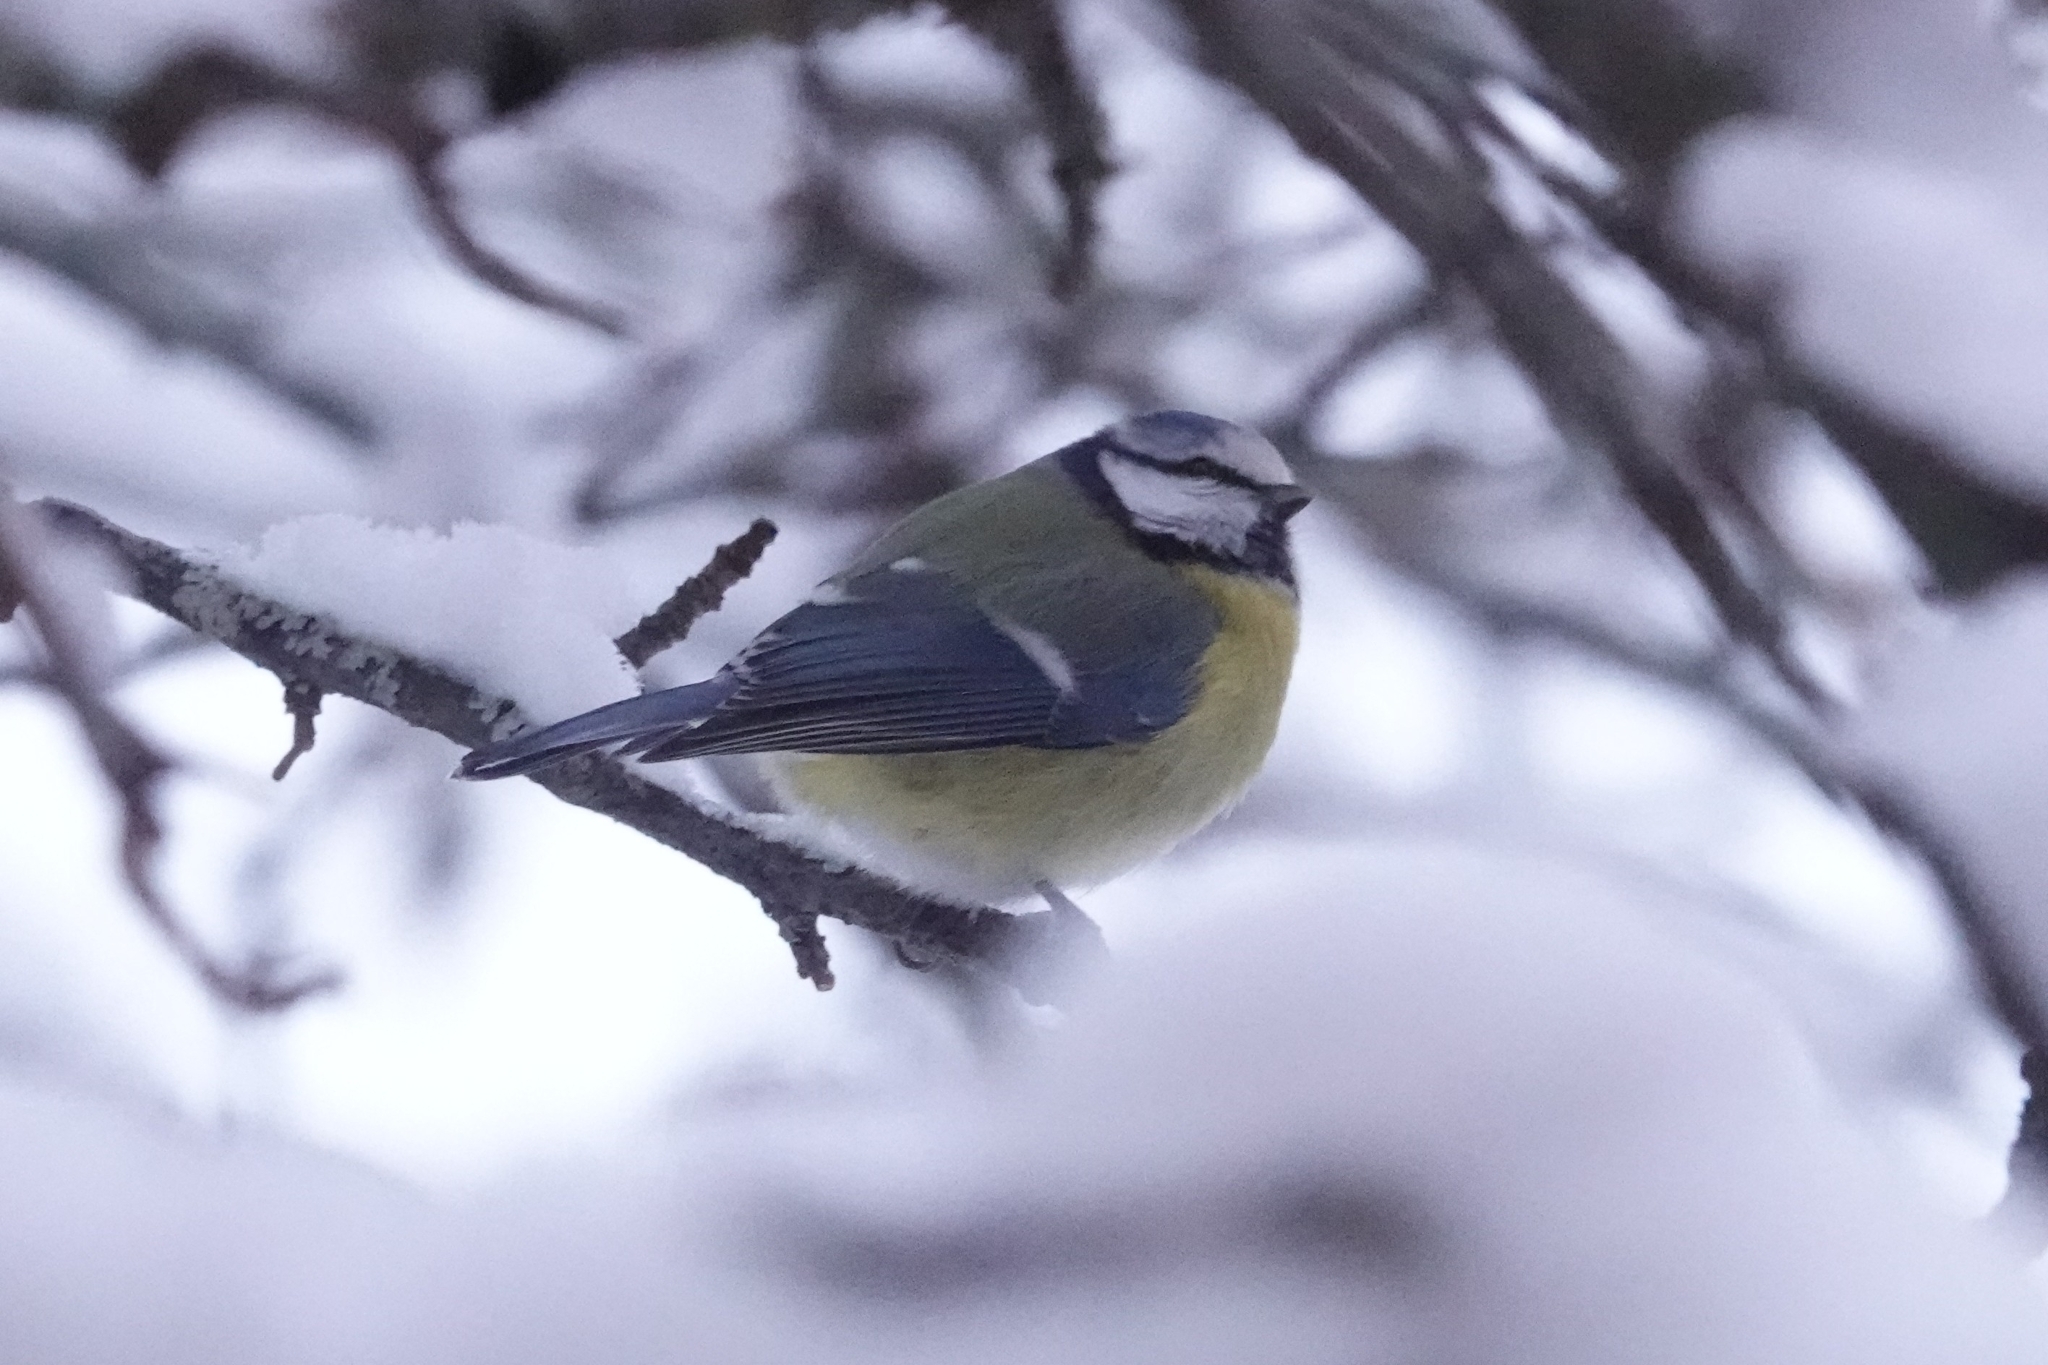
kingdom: Animalia
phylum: Chordata
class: Aves
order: Passeriformes
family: Paridae
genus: Cyanistes
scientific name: Cyanistes caeruleus
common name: Eurasian blue tit
